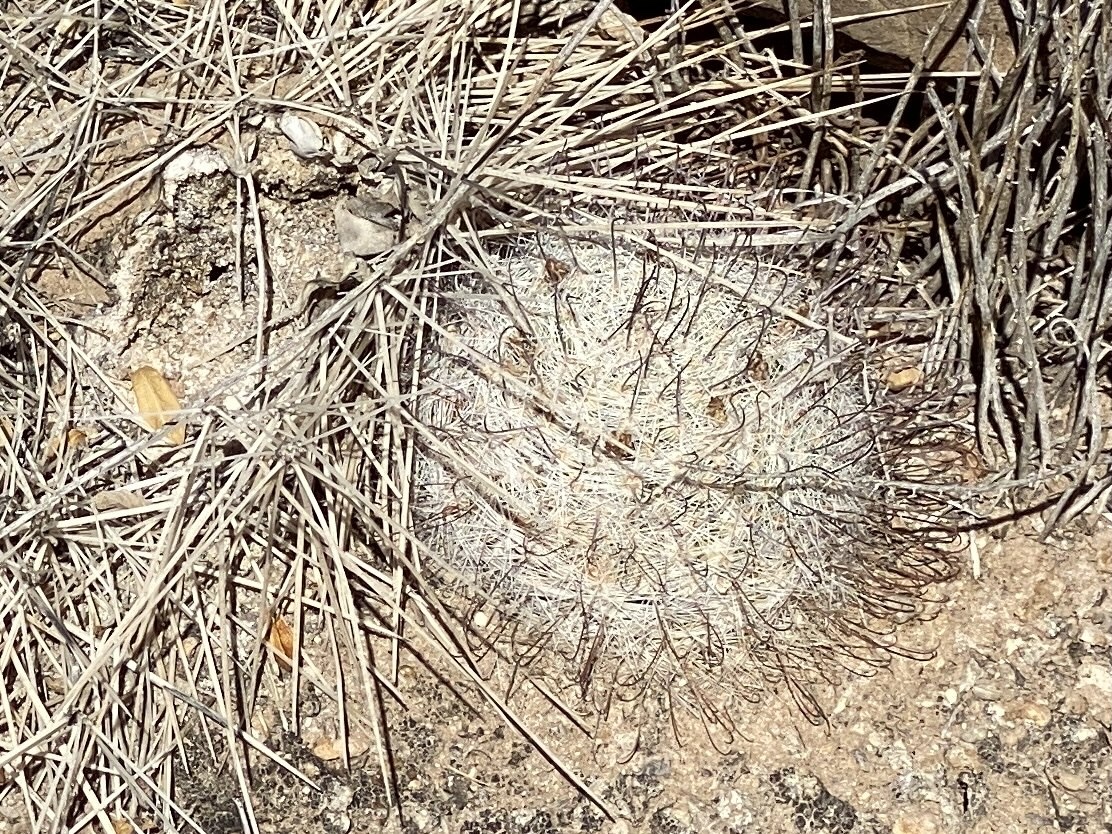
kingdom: Plantae
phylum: Tracheophyta
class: Magnoliopsida
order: Caryophyllales
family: Cactaceae
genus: Cochemiea
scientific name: Cochemiea grahamii
